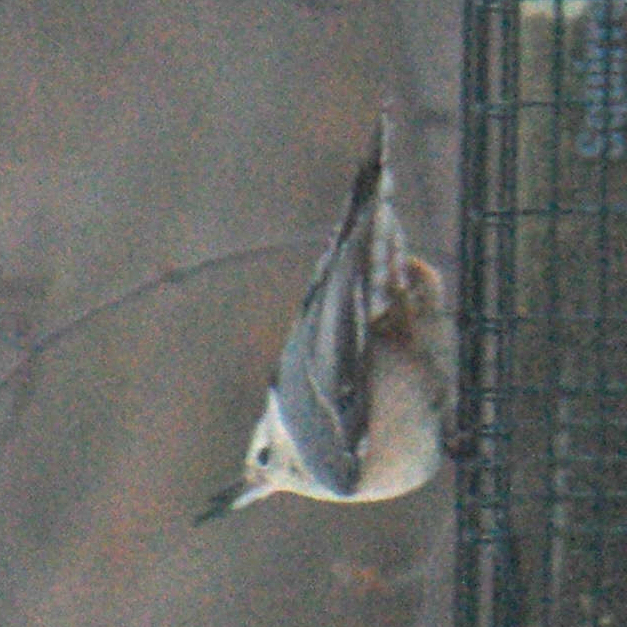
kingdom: Animalia
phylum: Chordata
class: Aves
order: Passeriformes
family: Sittidae
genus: Sitta
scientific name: Sitta carolinensis
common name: White-breasted nuthatch
